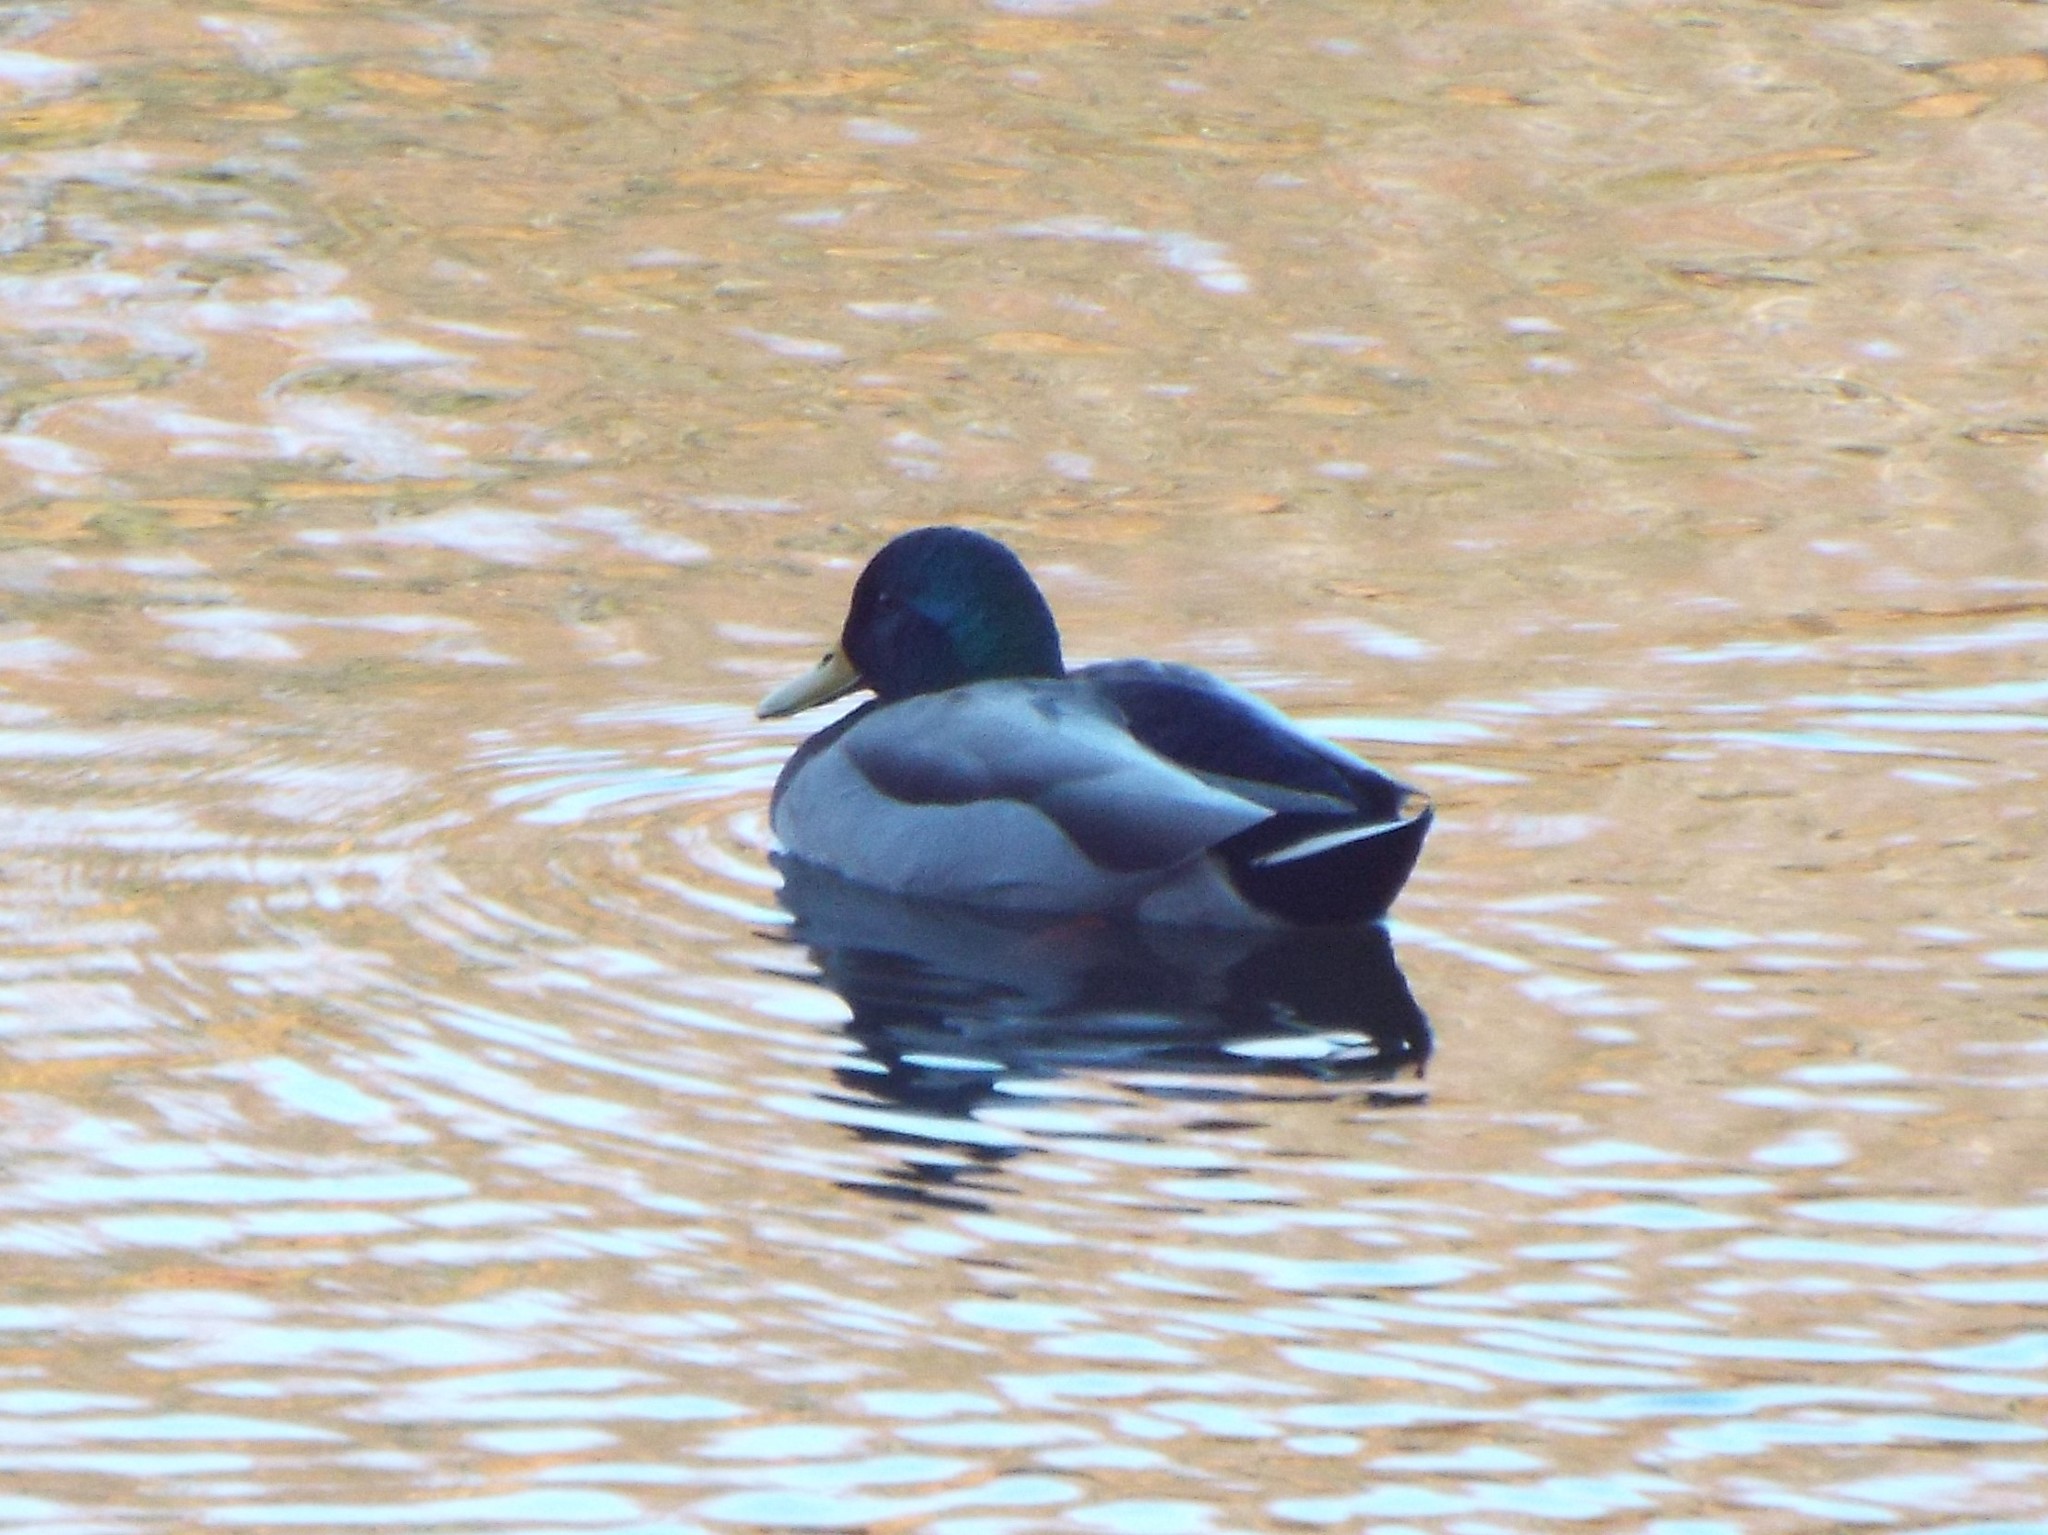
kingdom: Animalia
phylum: Chordata
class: Aves
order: Anseriformes
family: Anatidae
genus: Anas
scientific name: Anas platyrhynchos
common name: Mallard
